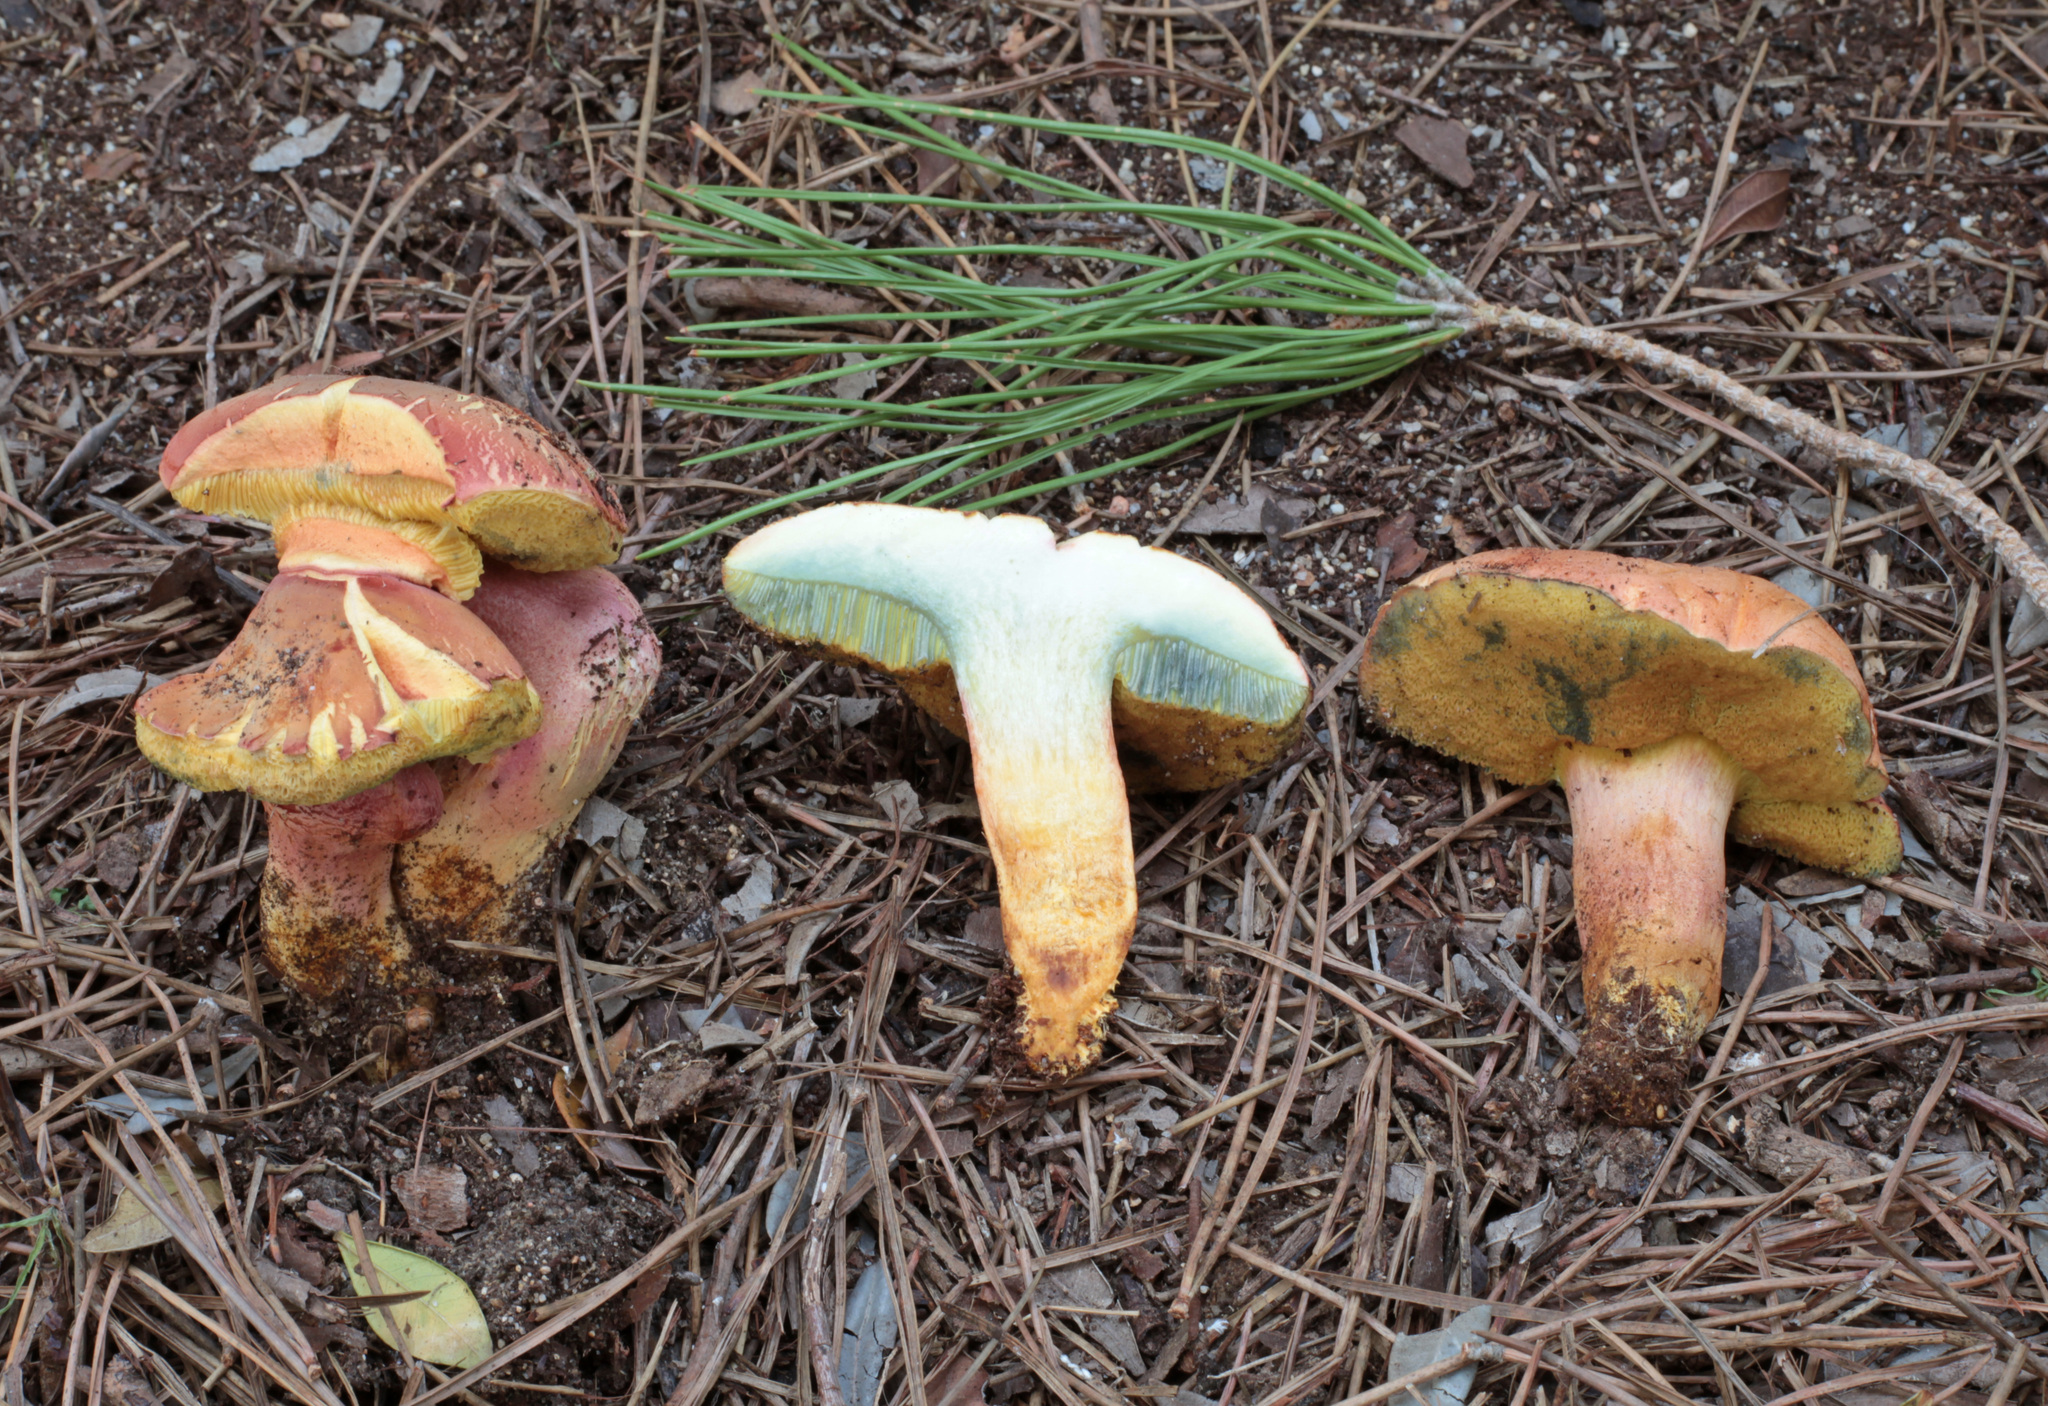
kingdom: Fungi
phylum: Basidiomycota
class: Agaricomycetes
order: Boletales
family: Boletaceae
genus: Rheubarbariboletus
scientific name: Rheubarbariboletus armeniacus
